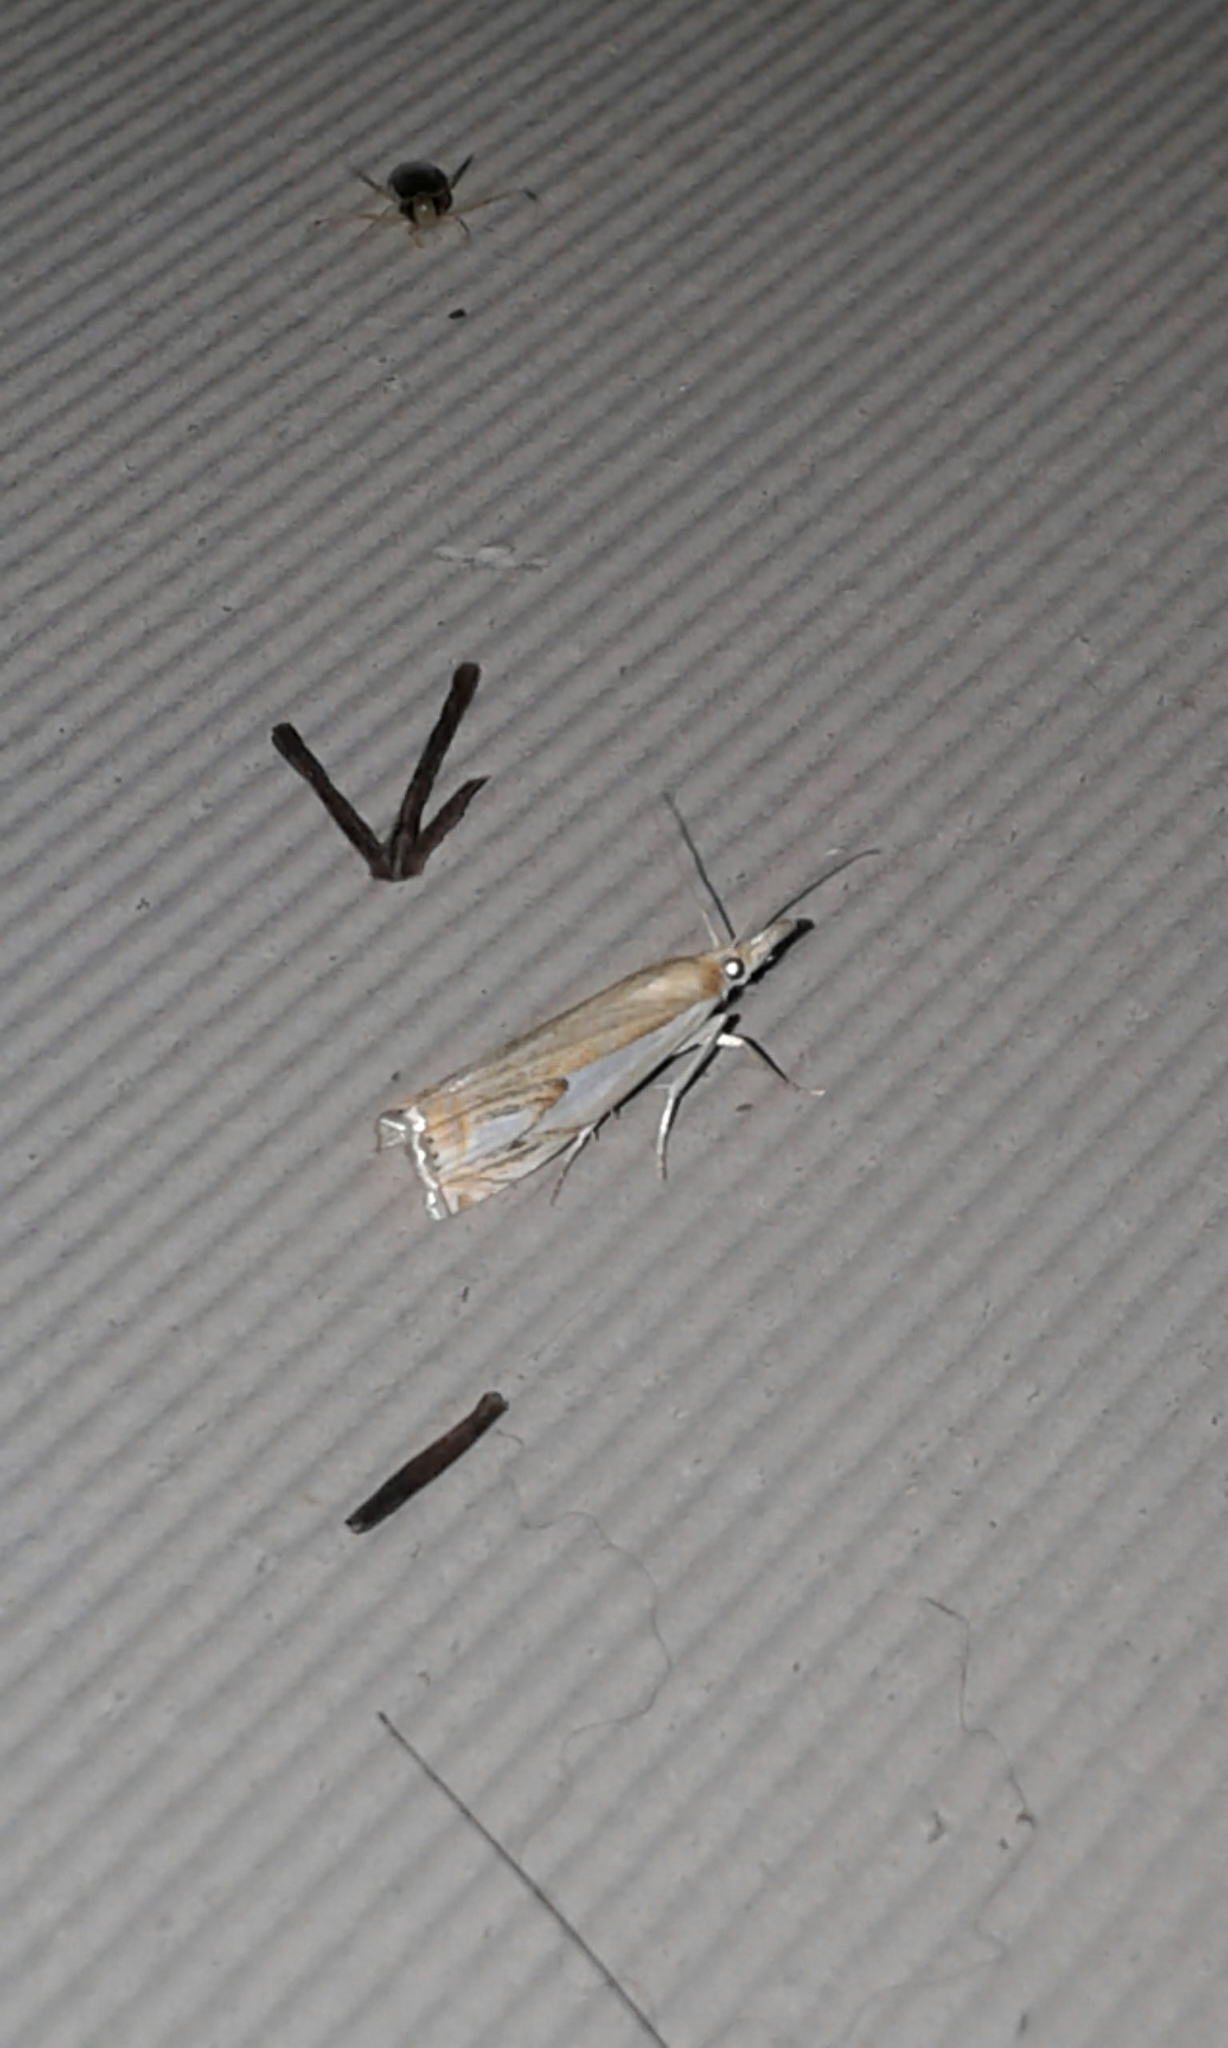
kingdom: Animalia
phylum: Arthropoda
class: Insecta
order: Lepidoptera
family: Crambidae
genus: Crambus
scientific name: Crambus agitatellus
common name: Double-banded grass-veneer
